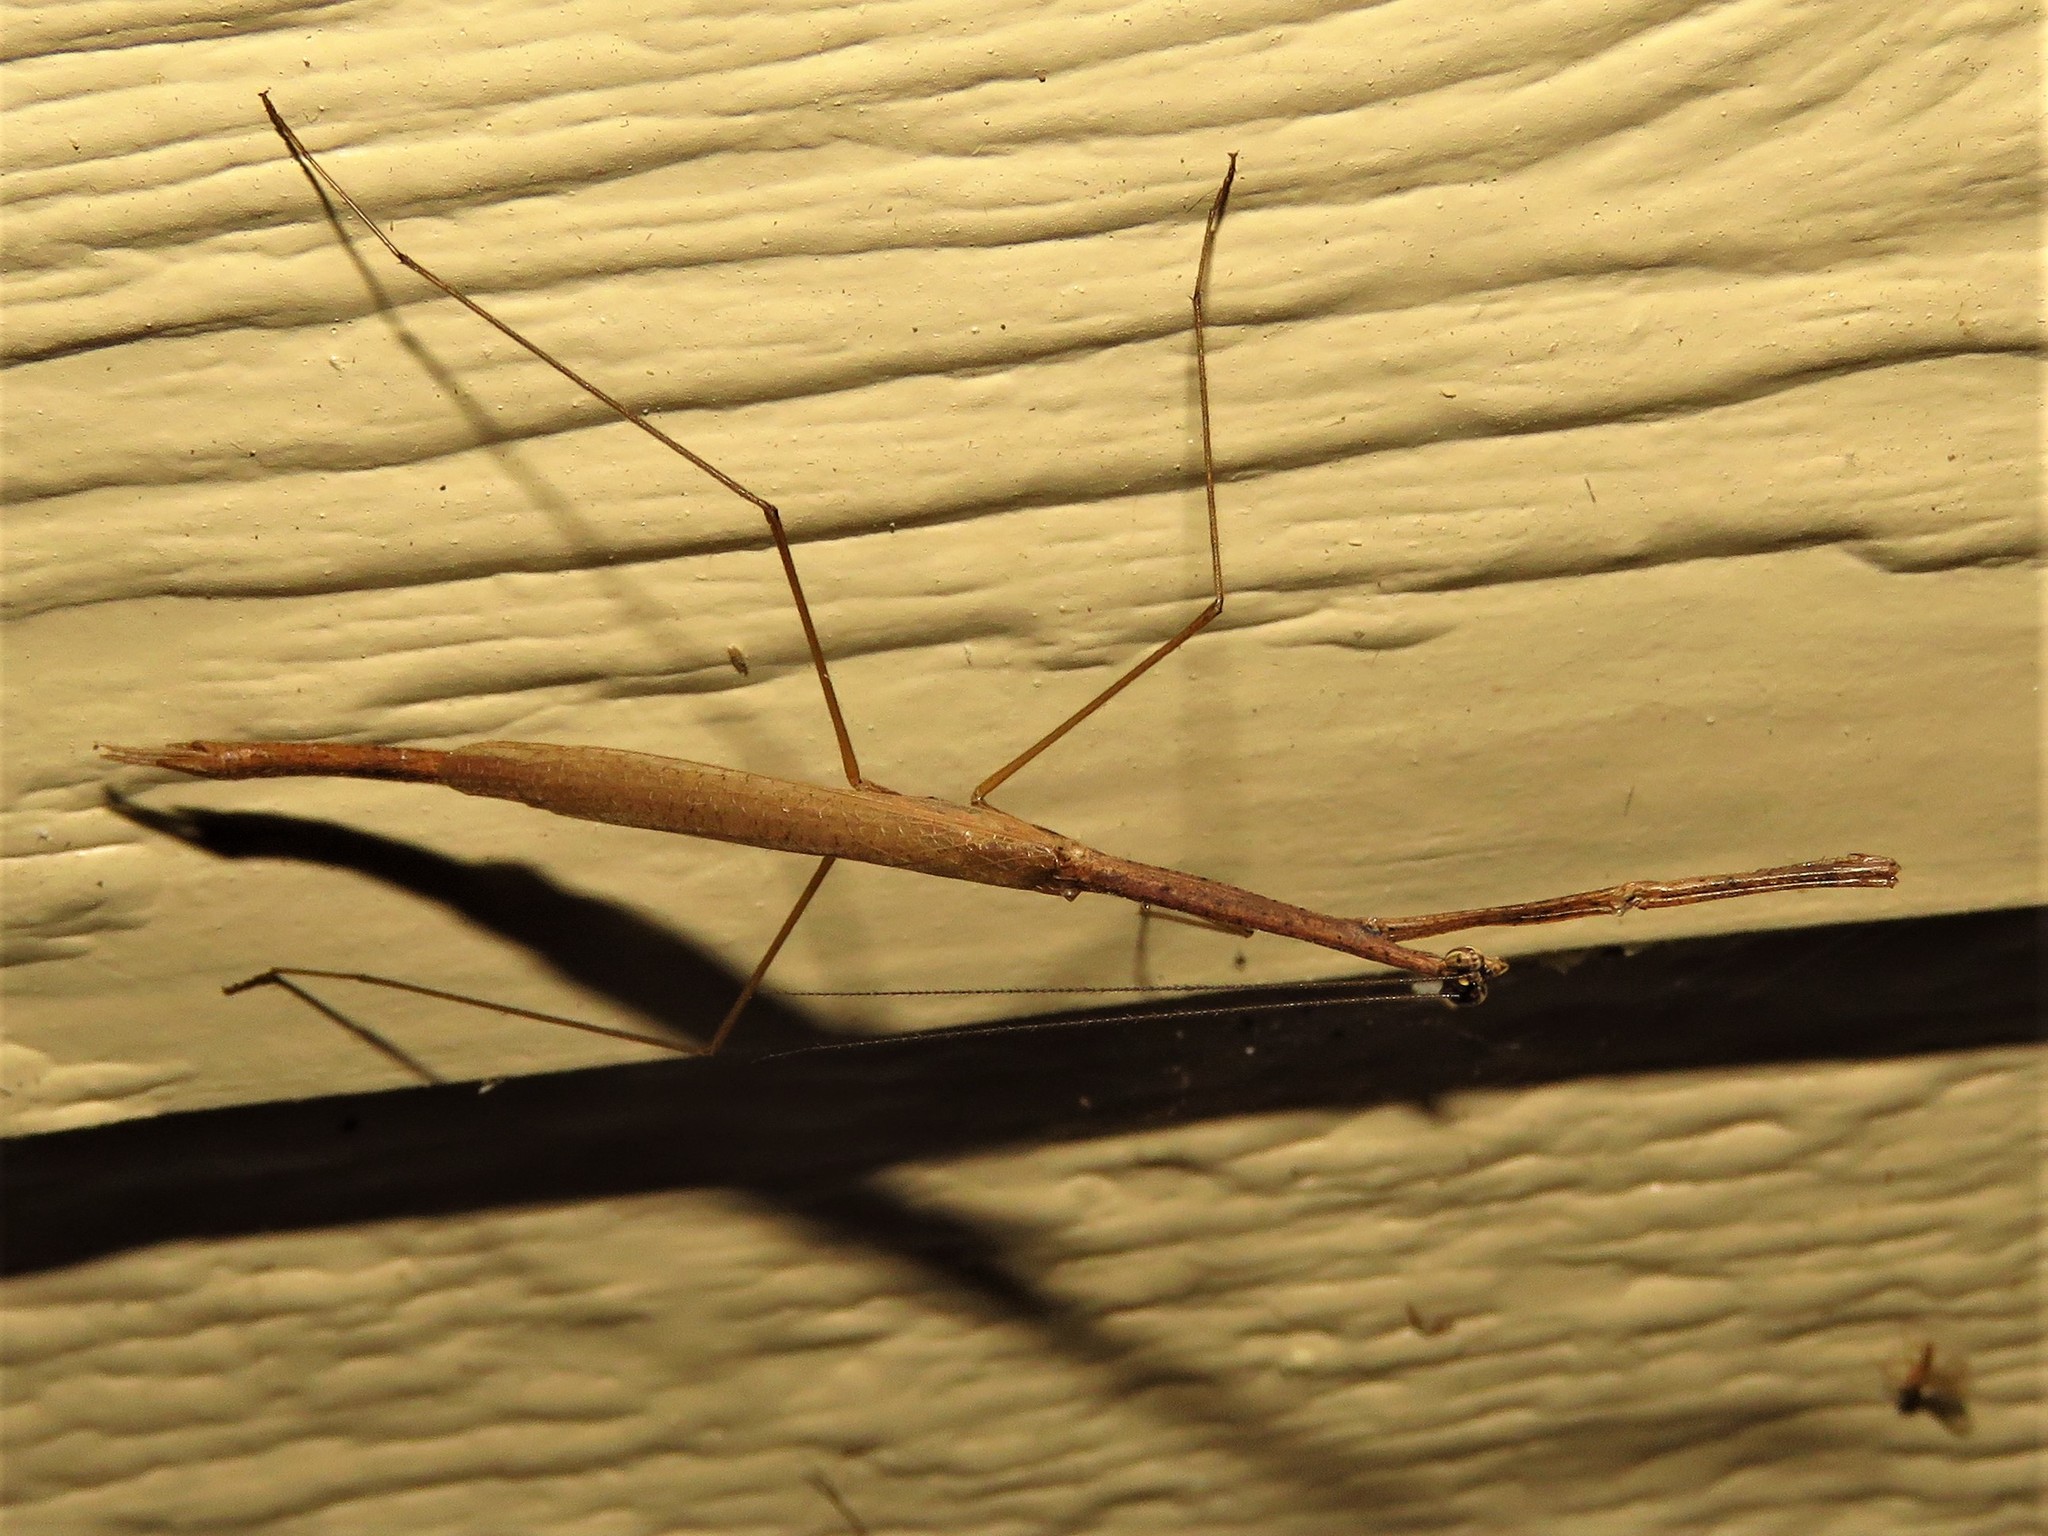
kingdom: Animalia
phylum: Arthropoda
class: Insecta
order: Mantodea
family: Thespidae
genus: Thesprotia
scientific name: Thesprotia graminis
